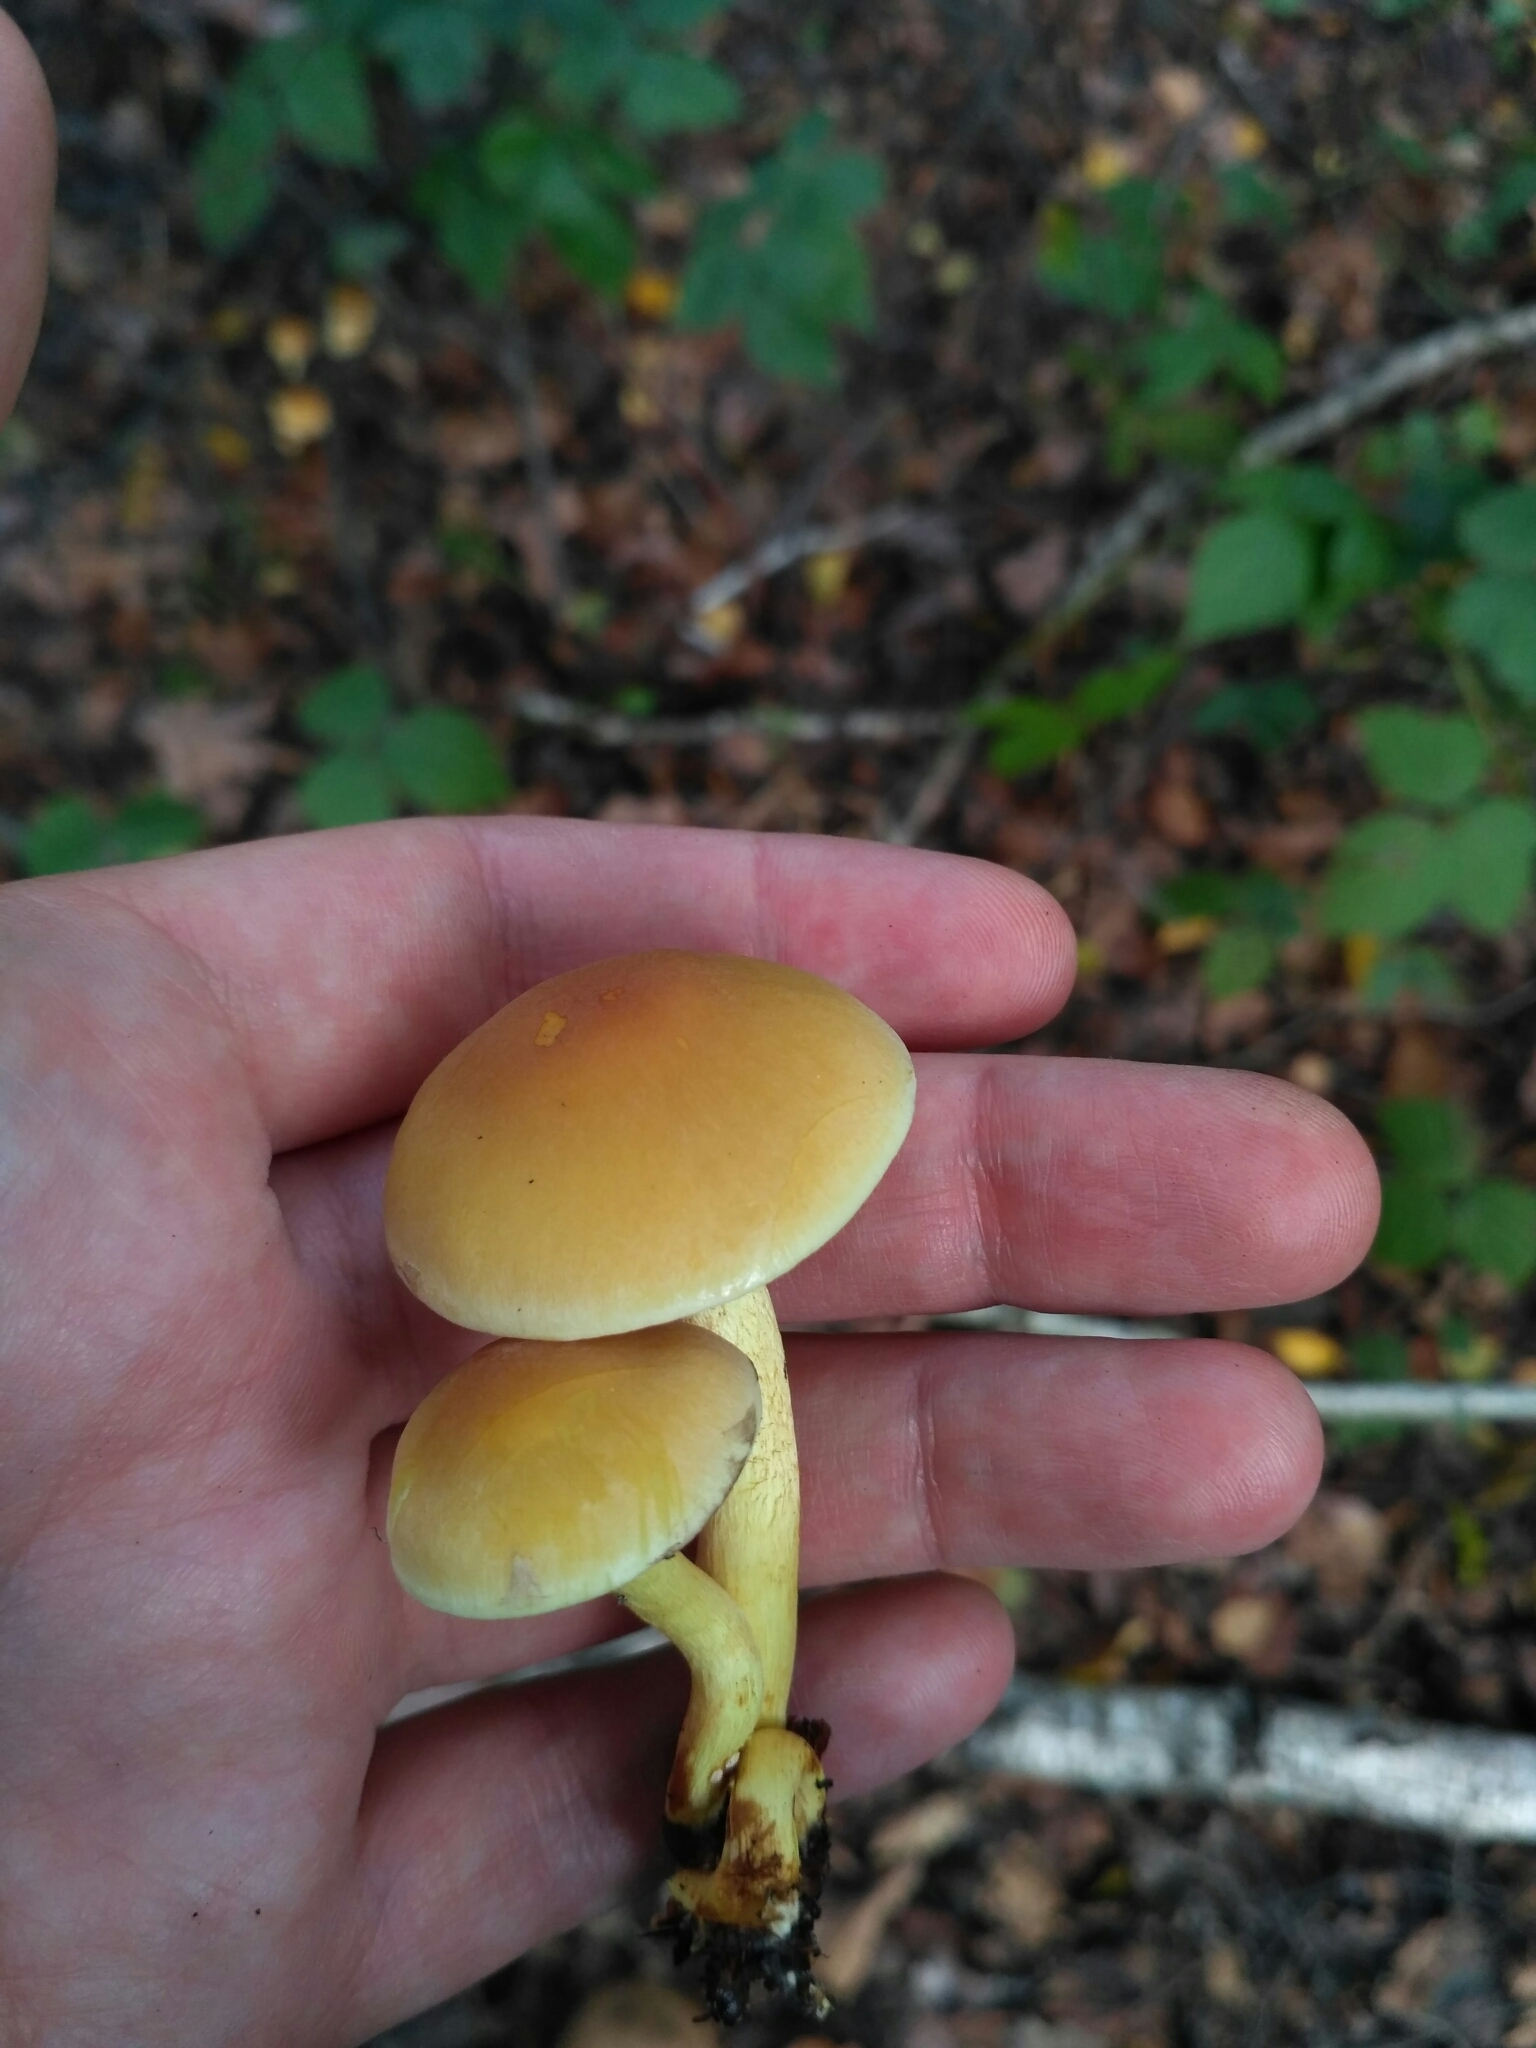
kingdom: Fungi
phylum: Basidiomycota
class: Agaricomycetes
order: Agaricales
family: Strophariaceae
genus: Hypholoma
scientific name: Hypholoma fasciculare
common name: Sulphur tuft
